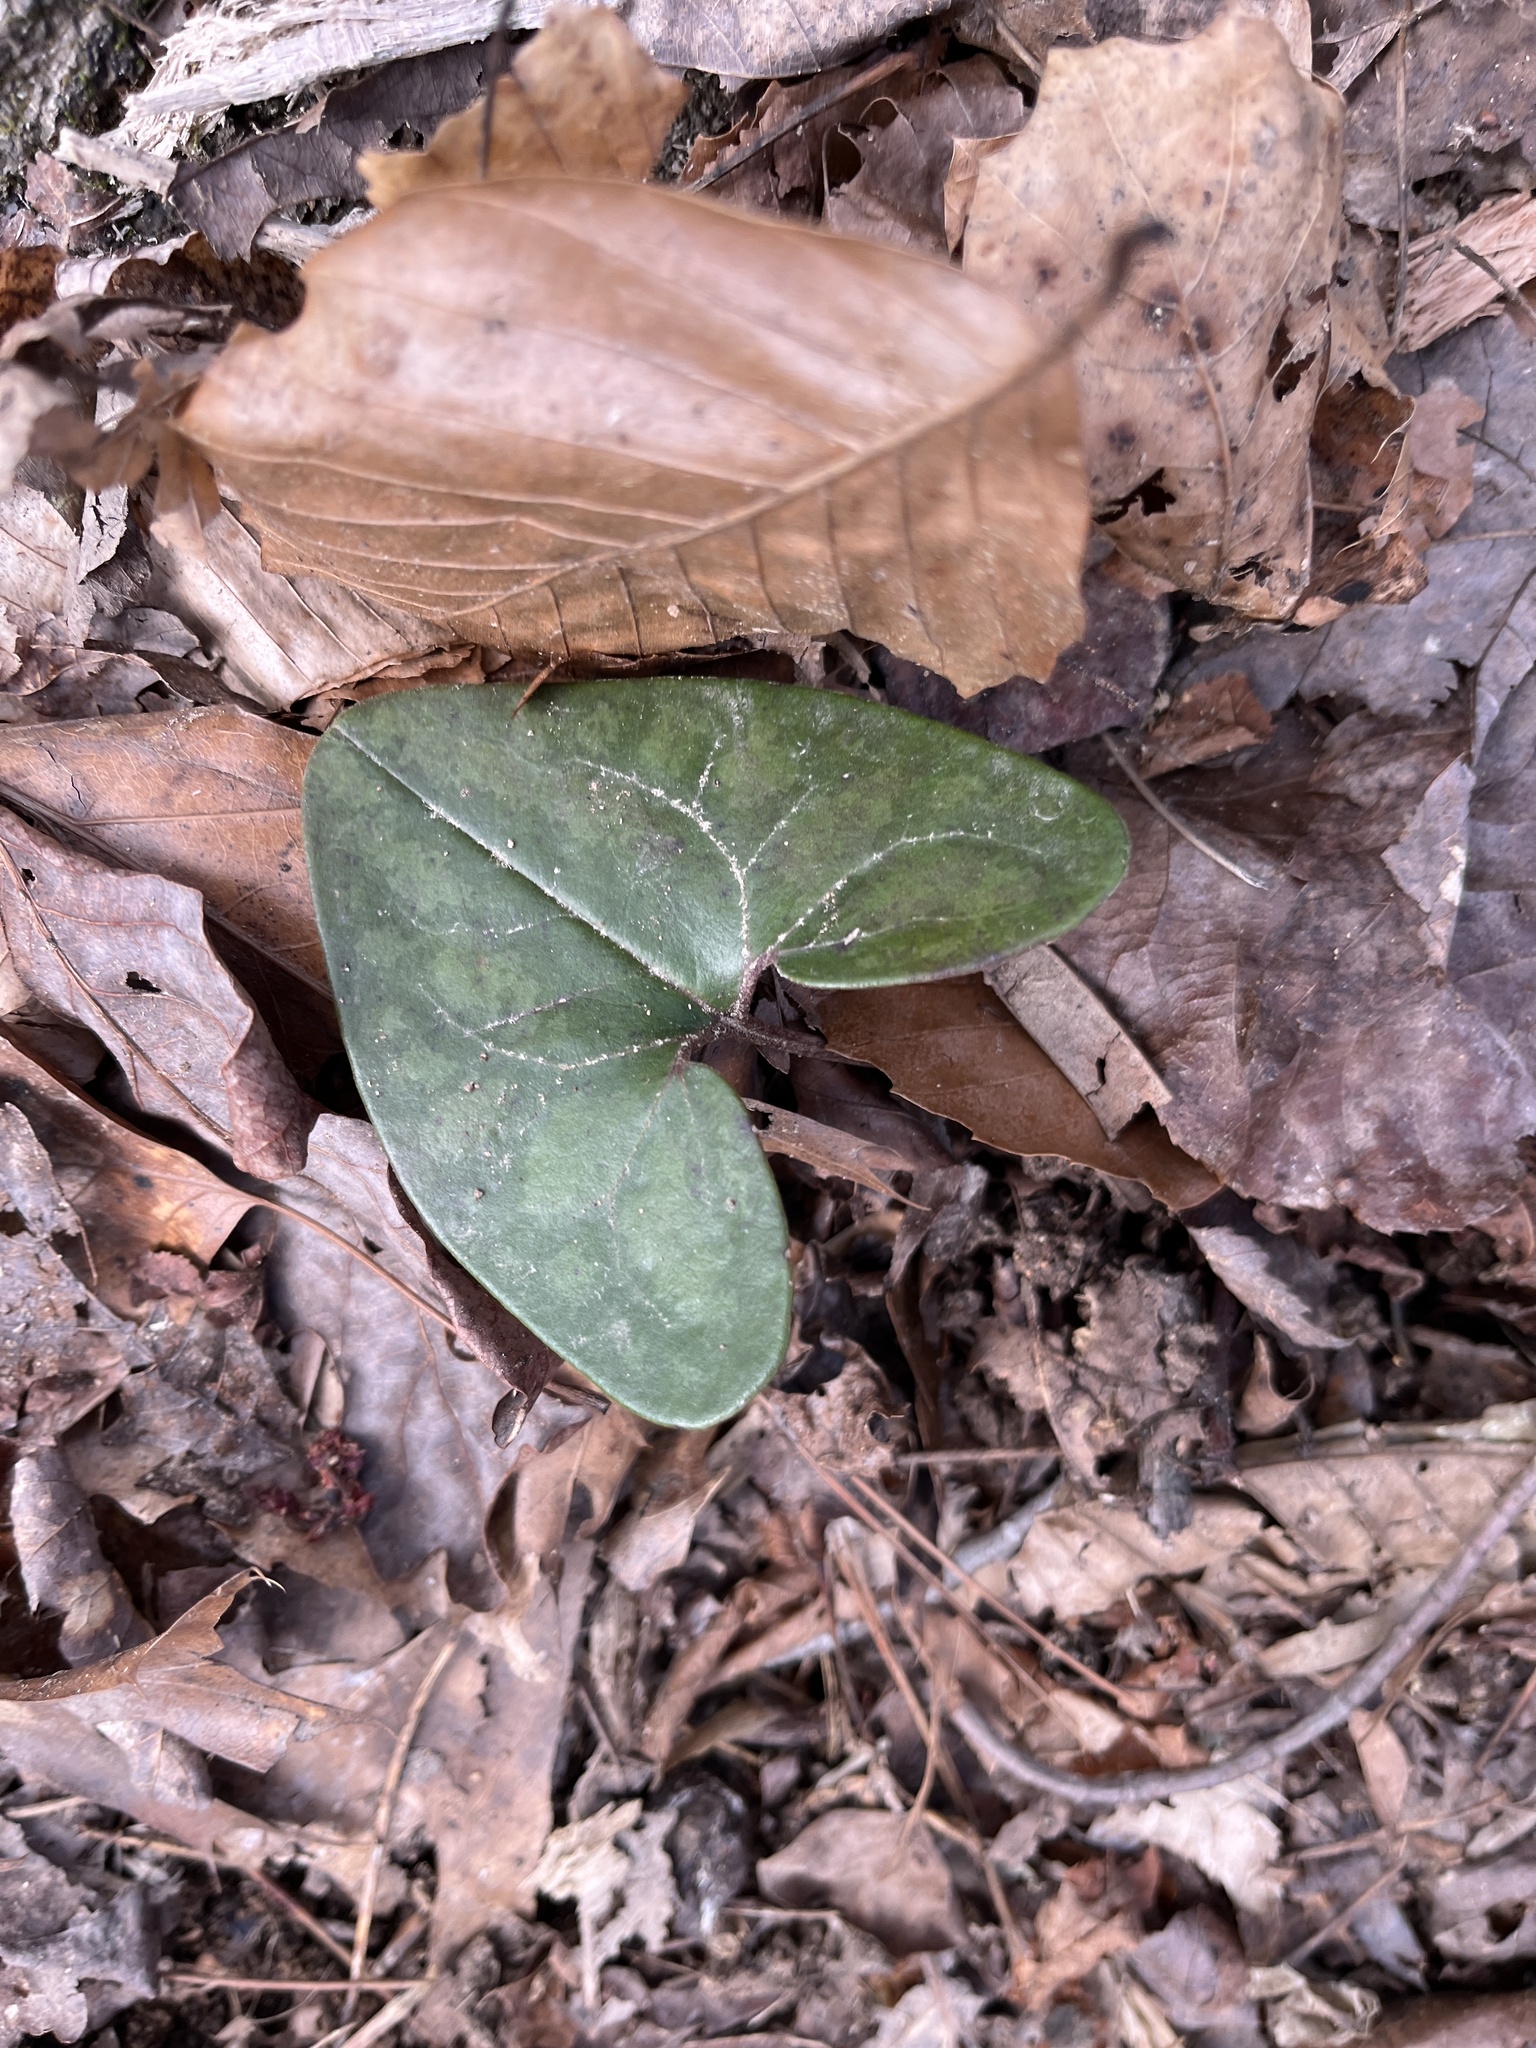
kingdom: Plantae
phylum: Tracheophyta
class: Magnoliopsida
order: Piperales
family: Aristolochiaceae
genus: Hexastylis
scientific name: Hexastylis arifolia
